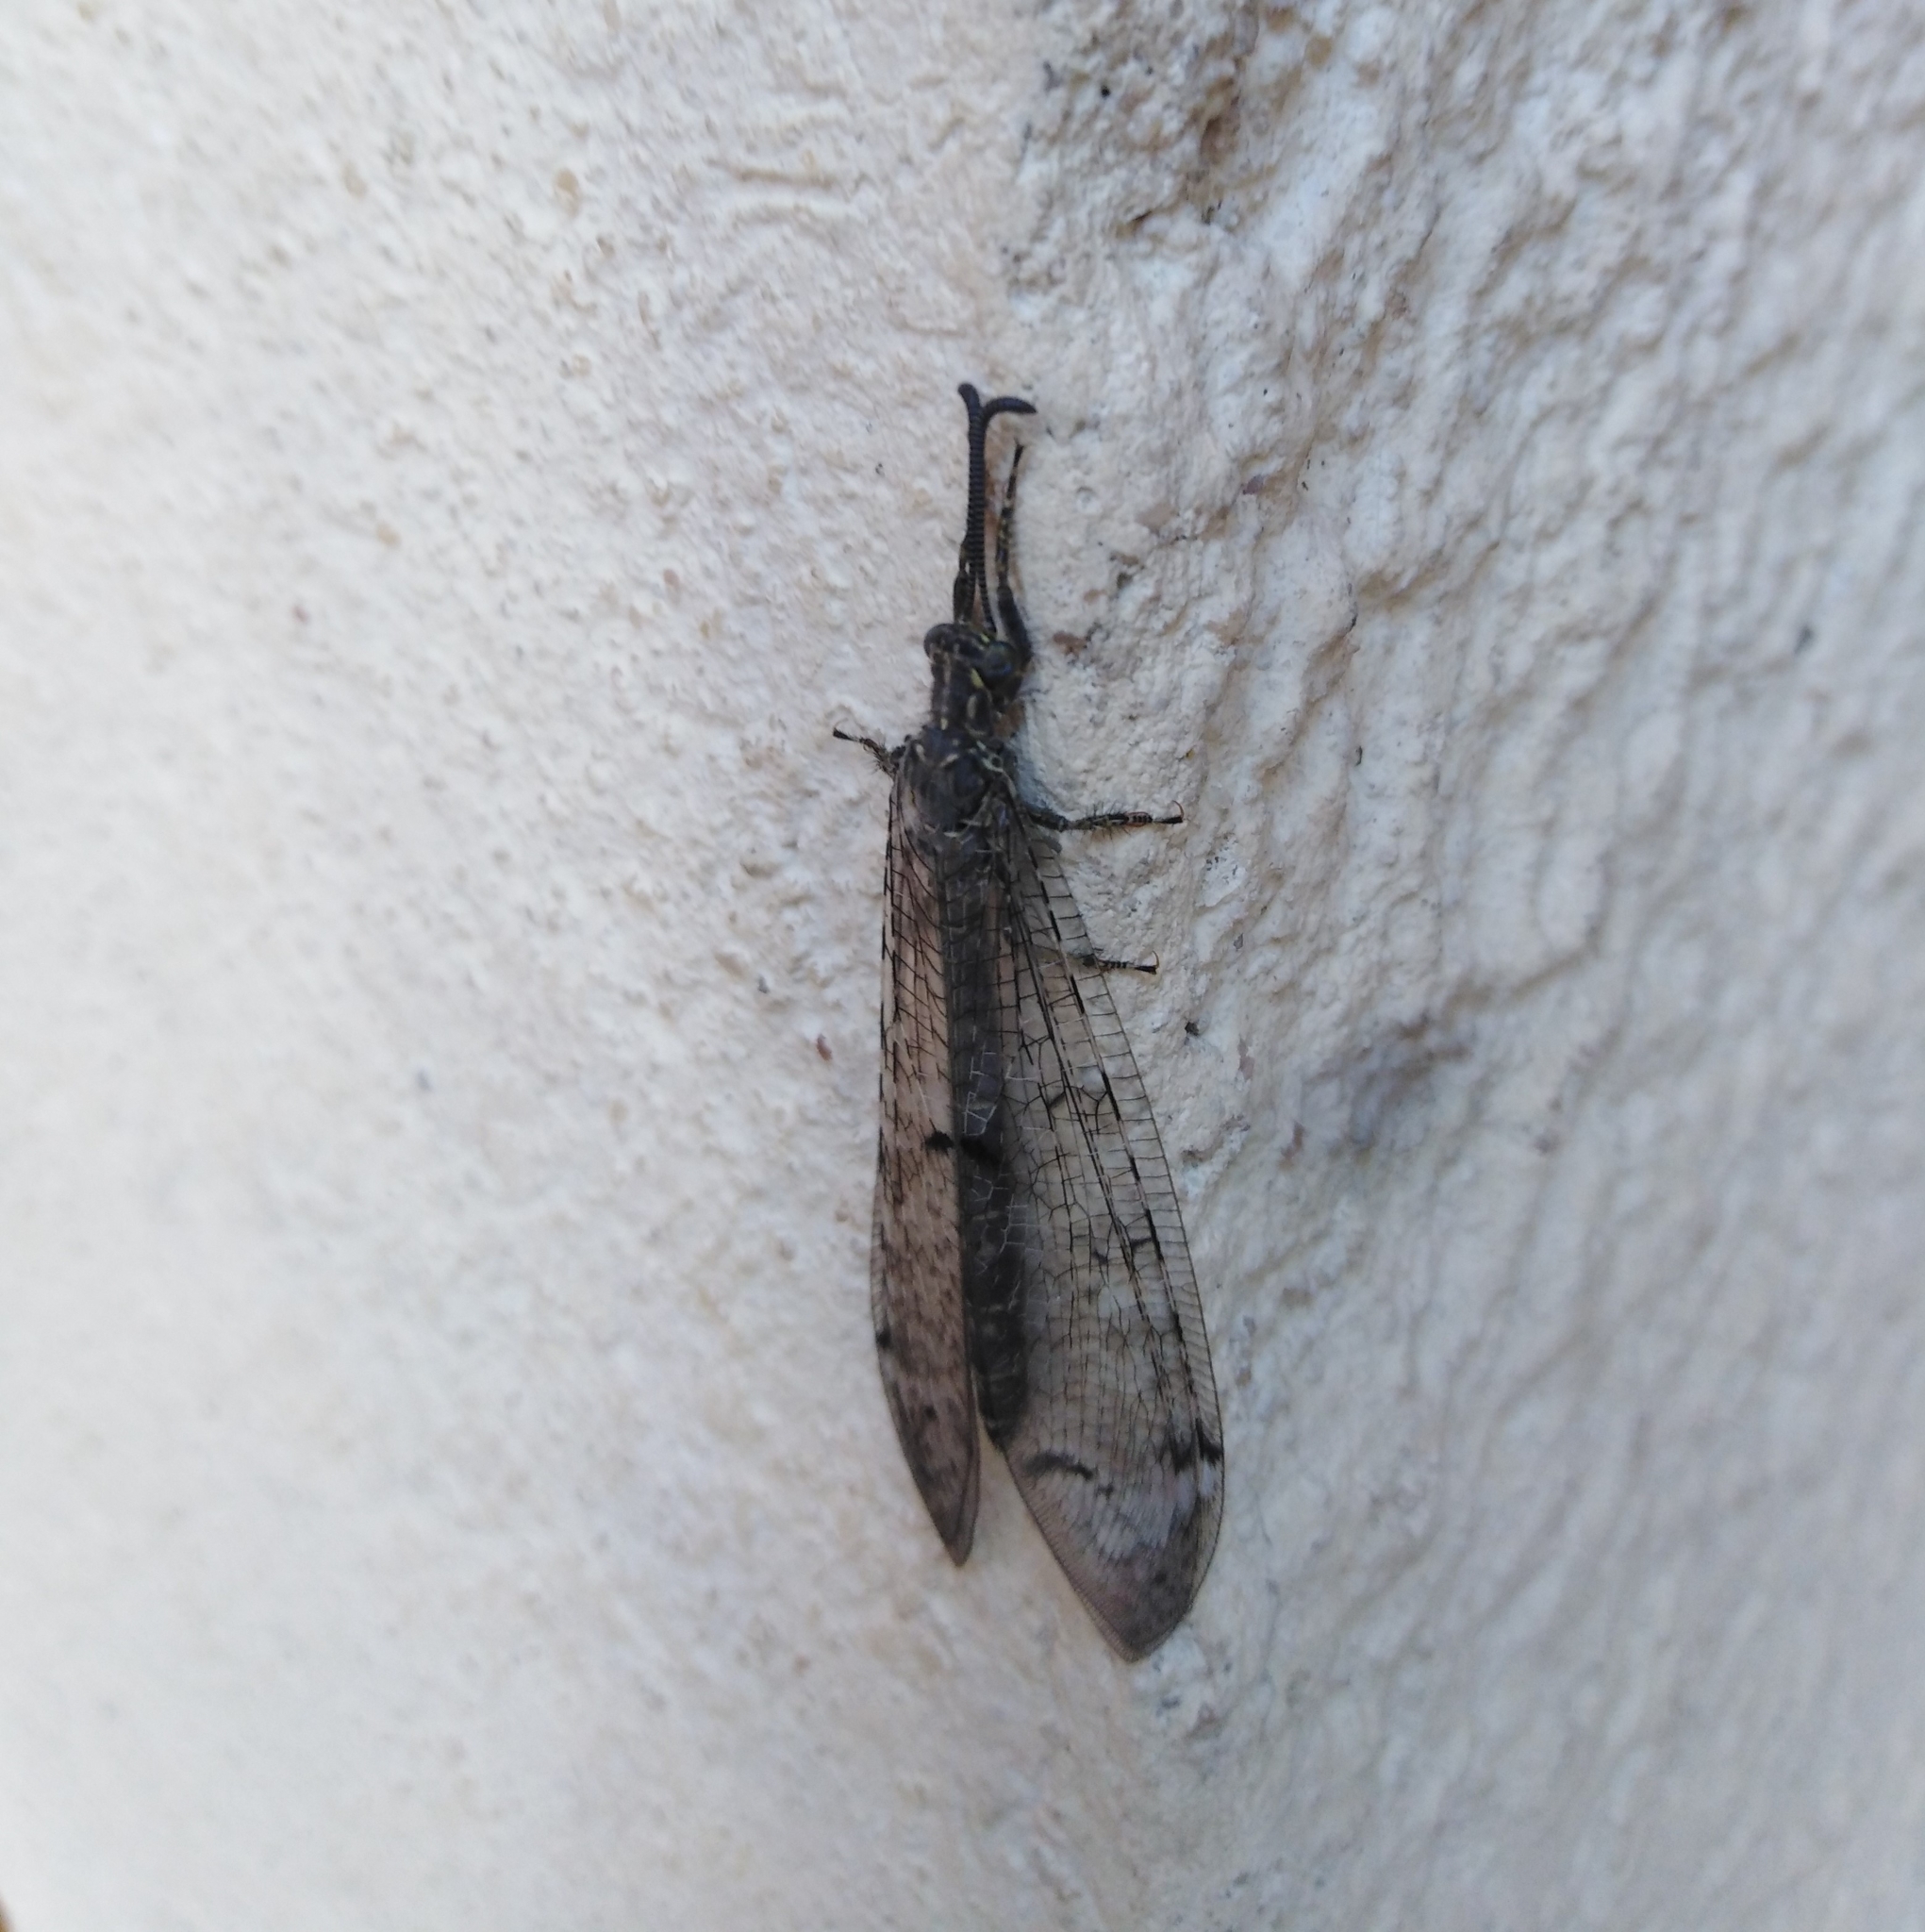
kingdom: Animalia
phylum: Arthropoda
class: Insecta
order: Neuroptera
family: Myrmeleontidae
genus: Distoleon
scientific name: Distoleon tetragrammicus
